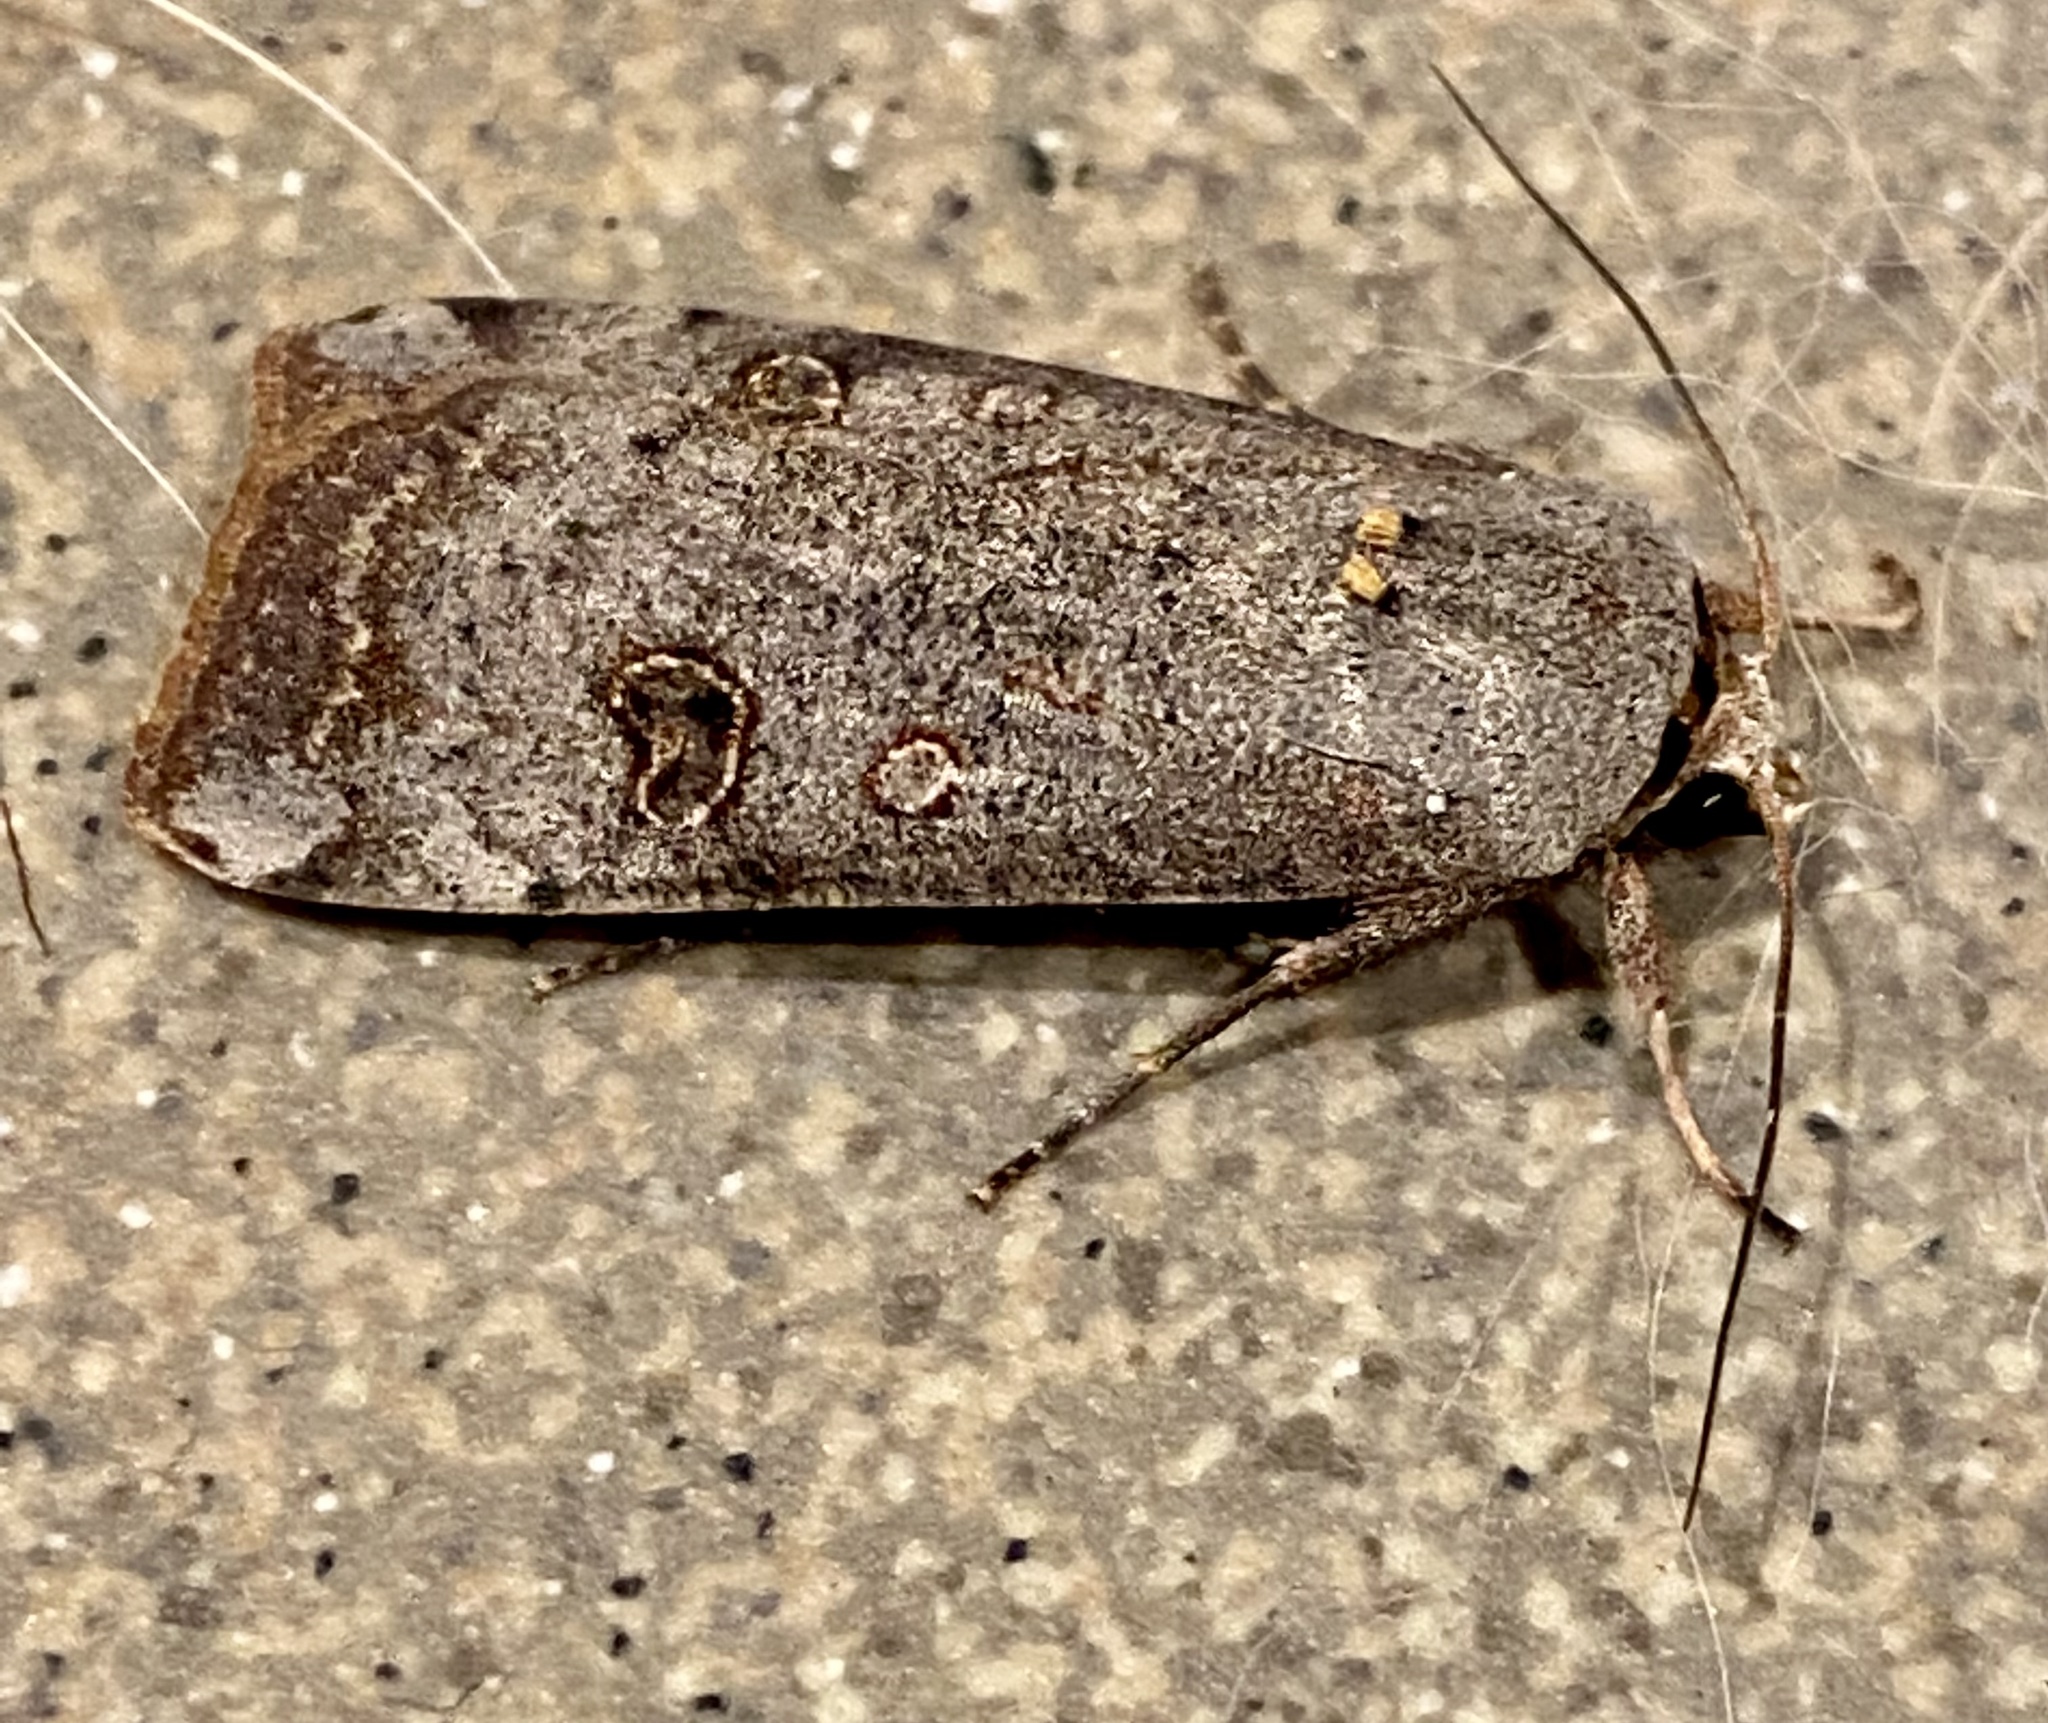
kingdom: Animalia
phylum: Arthropoda
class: Insecta
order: Lepidoptera
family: Noctuidae
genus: Anicla
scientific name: Anicla infecta
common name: Green cutworm
